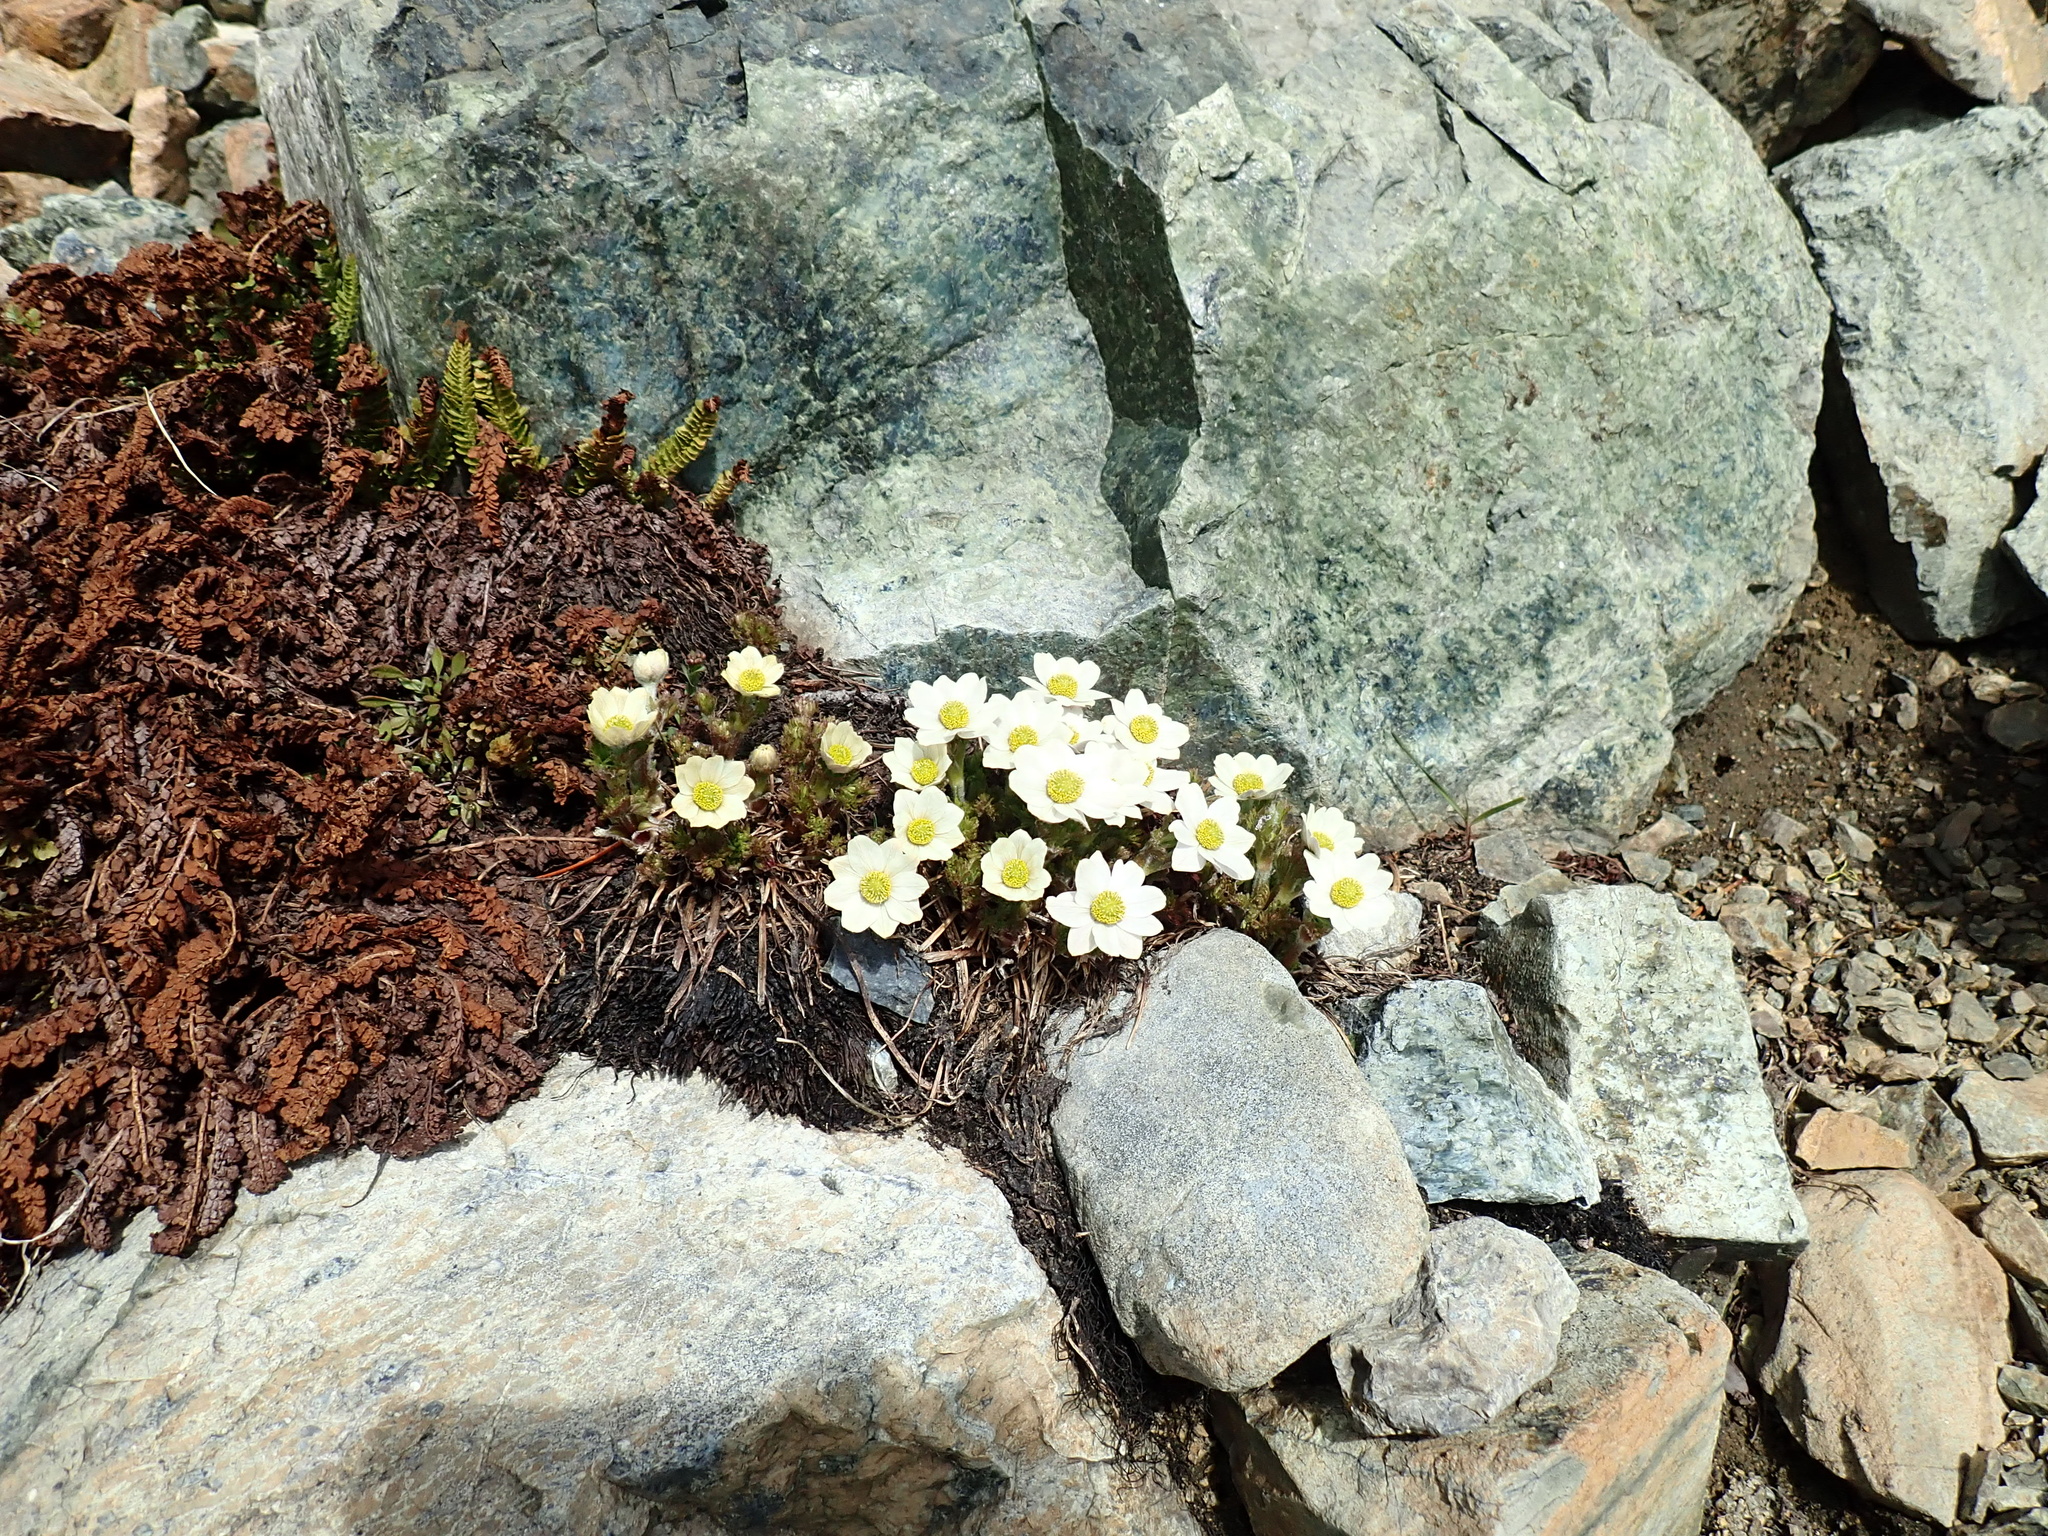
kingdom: Plantae
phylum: Tracheophyta
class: Magnoliopsida
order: Ranunculales
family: Ranunculaceae
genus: Pulsatilla
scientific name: Pulsatilla occidentalis
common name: Mountain pasqueflower
